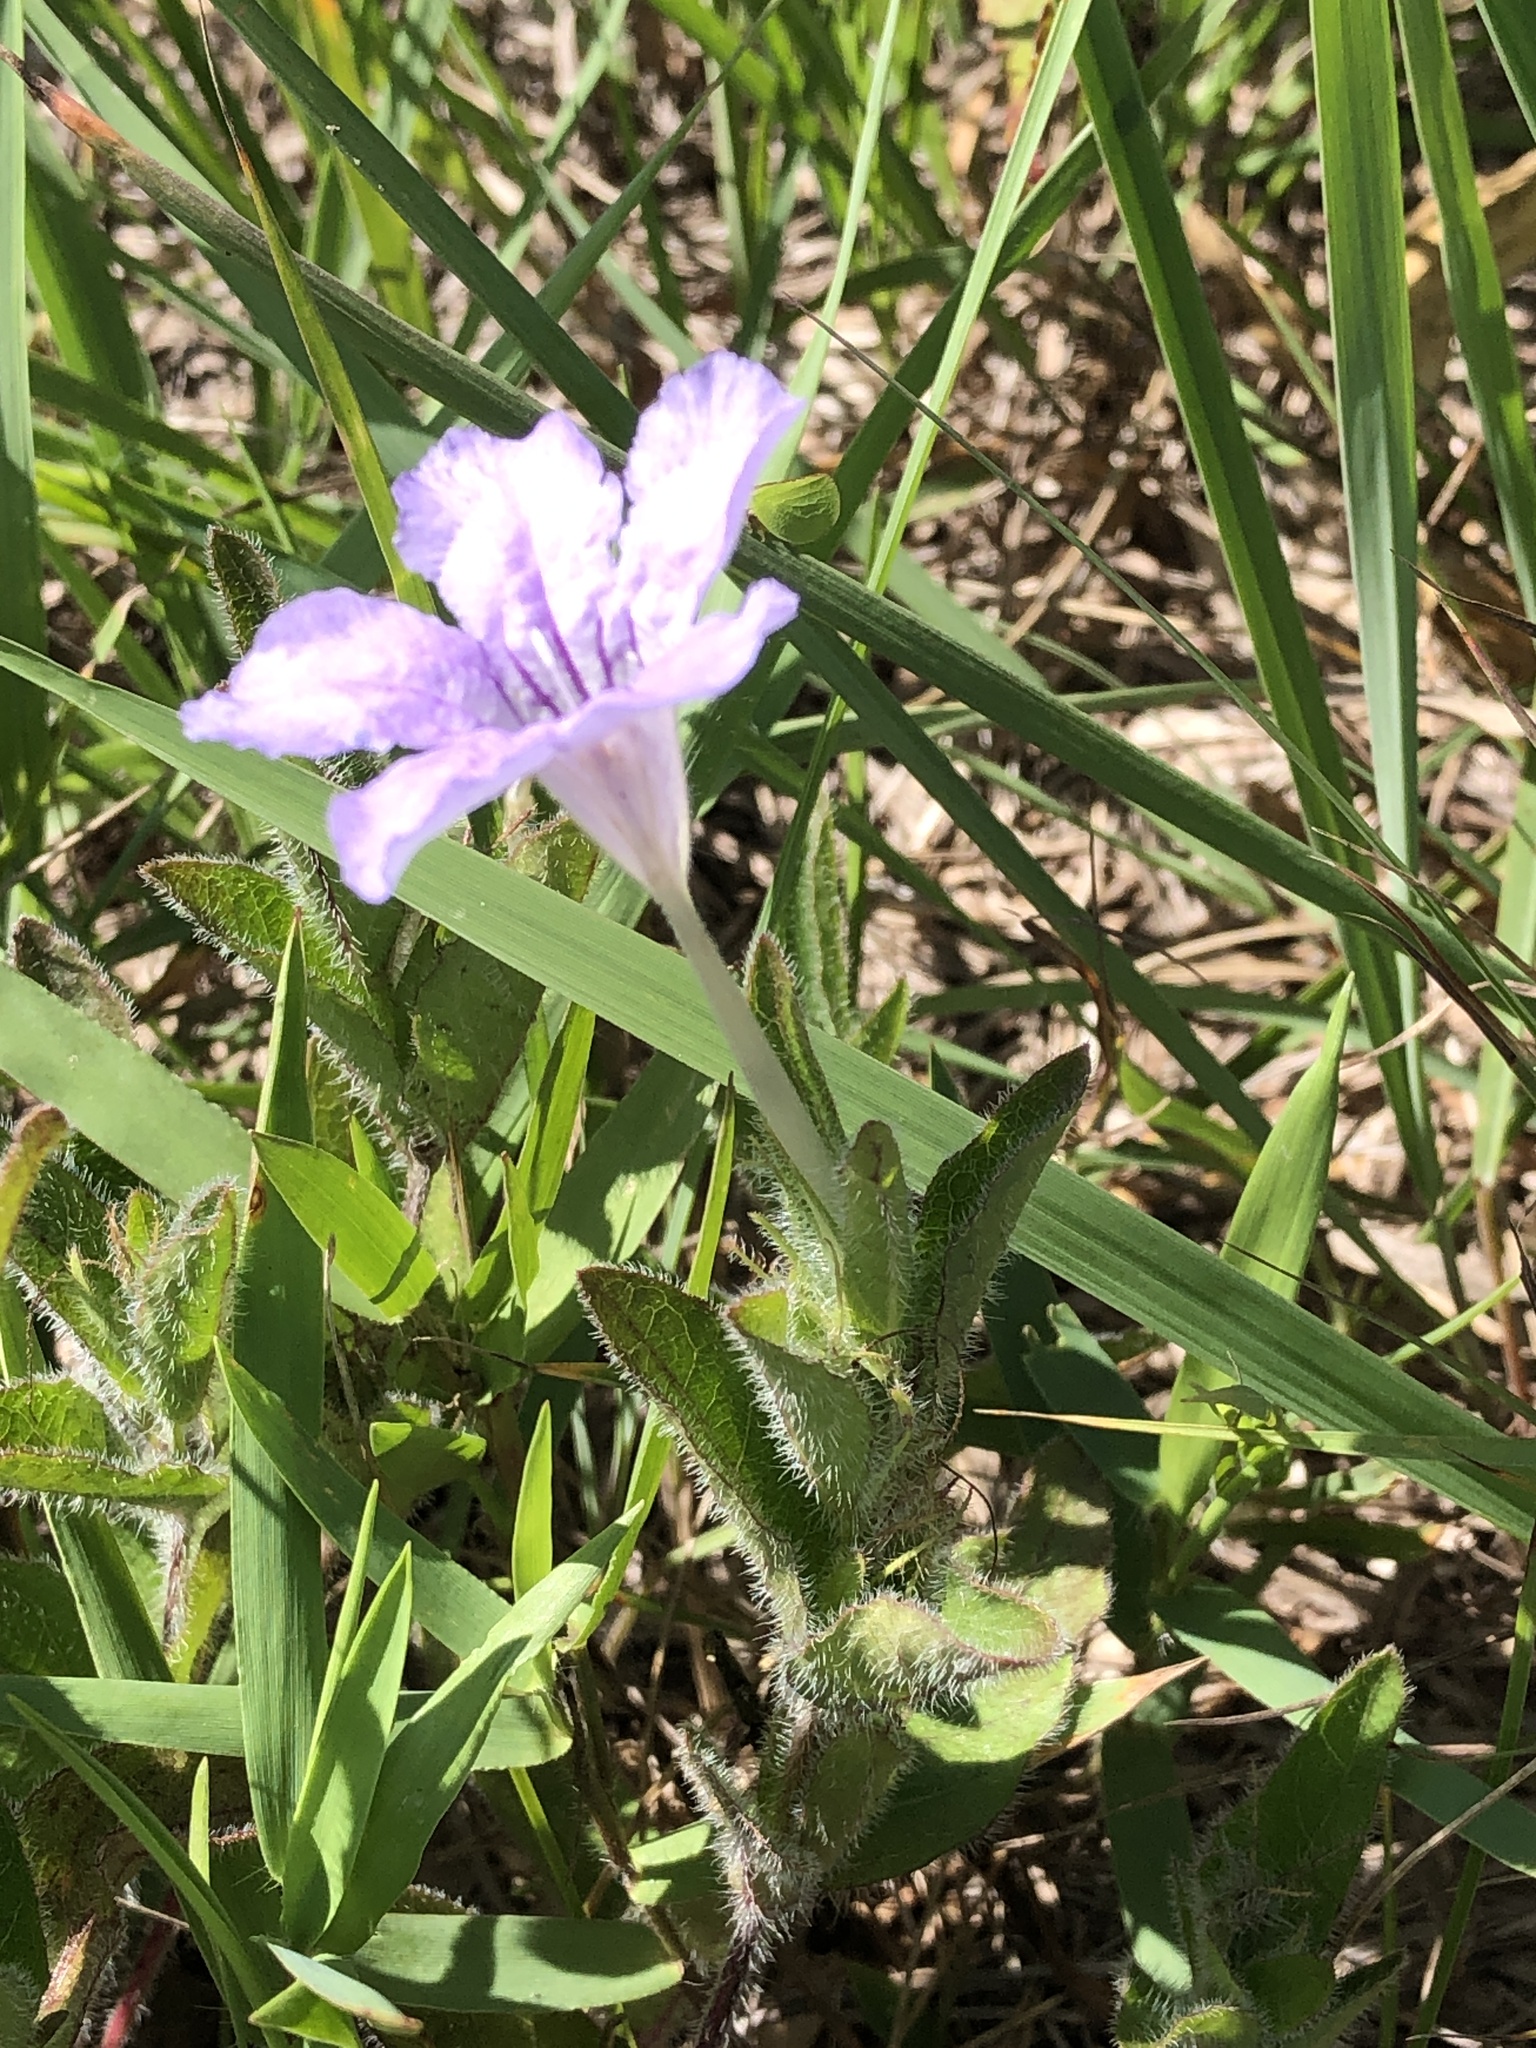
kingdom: Plantae
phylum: Tracheophyta
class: Magnoliopsida
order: Lamiales
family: Acanthaceae
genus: Ruellia
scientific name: Ruellia humilis
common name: Fringe-leaf ruellia
